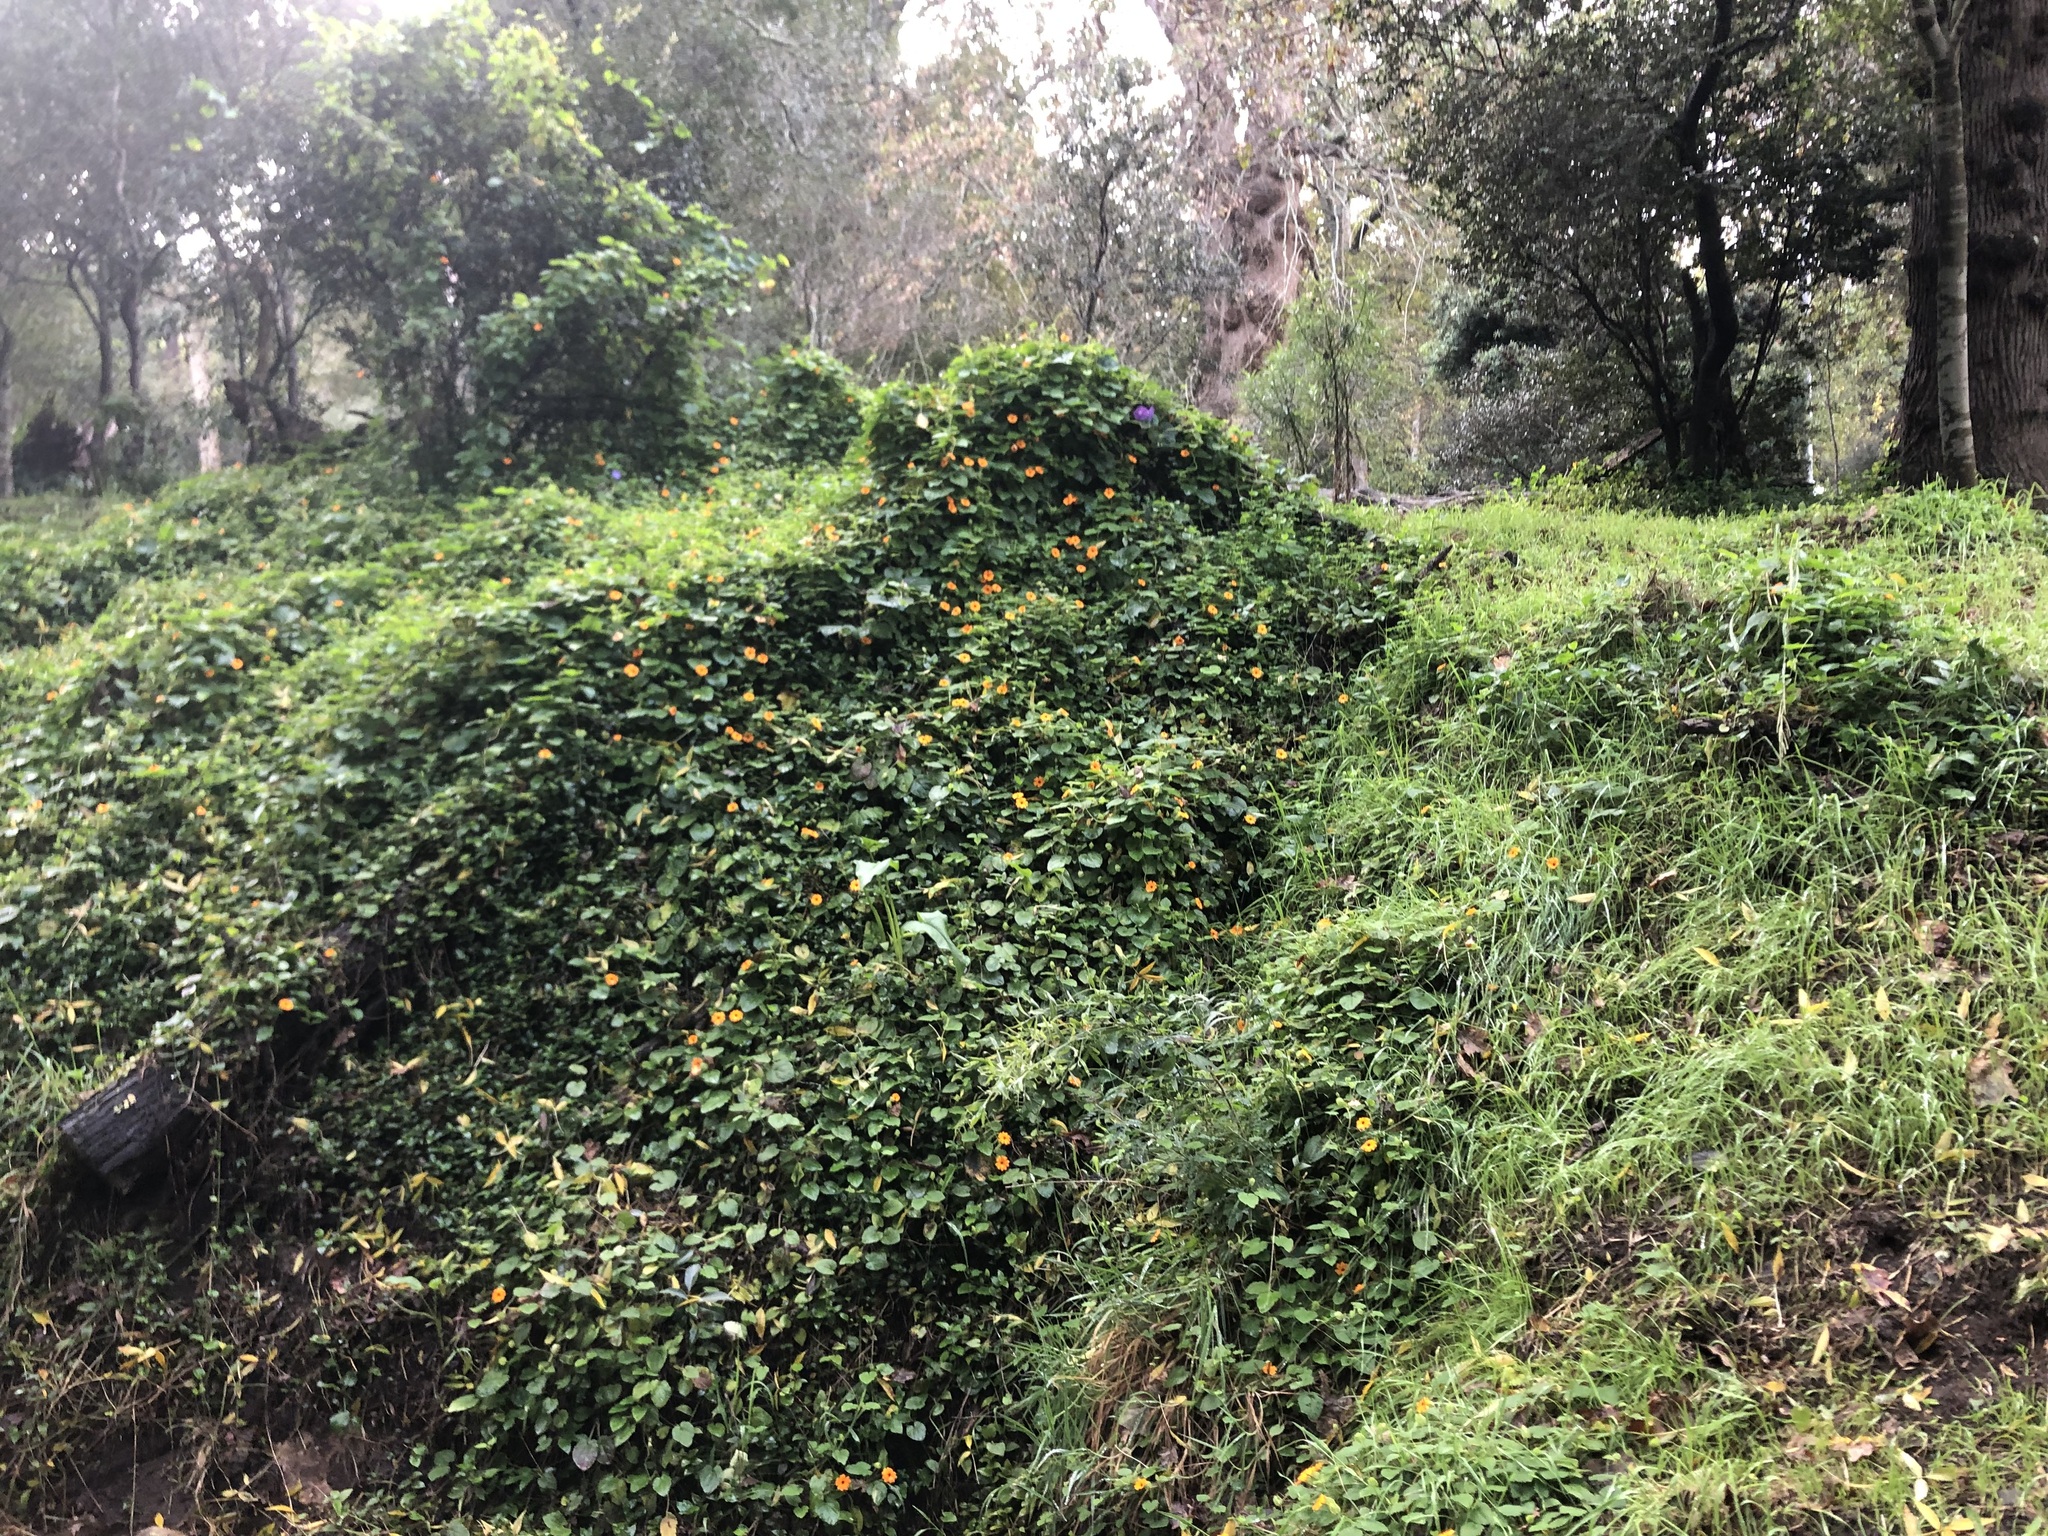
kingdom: Plantae
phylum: Tracheophyta
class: Magnoliopsida
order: Lamiales
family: Acanthaceae
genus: Thunbergia
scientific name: Thunbergia alata
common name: Blackeyed susan vine
